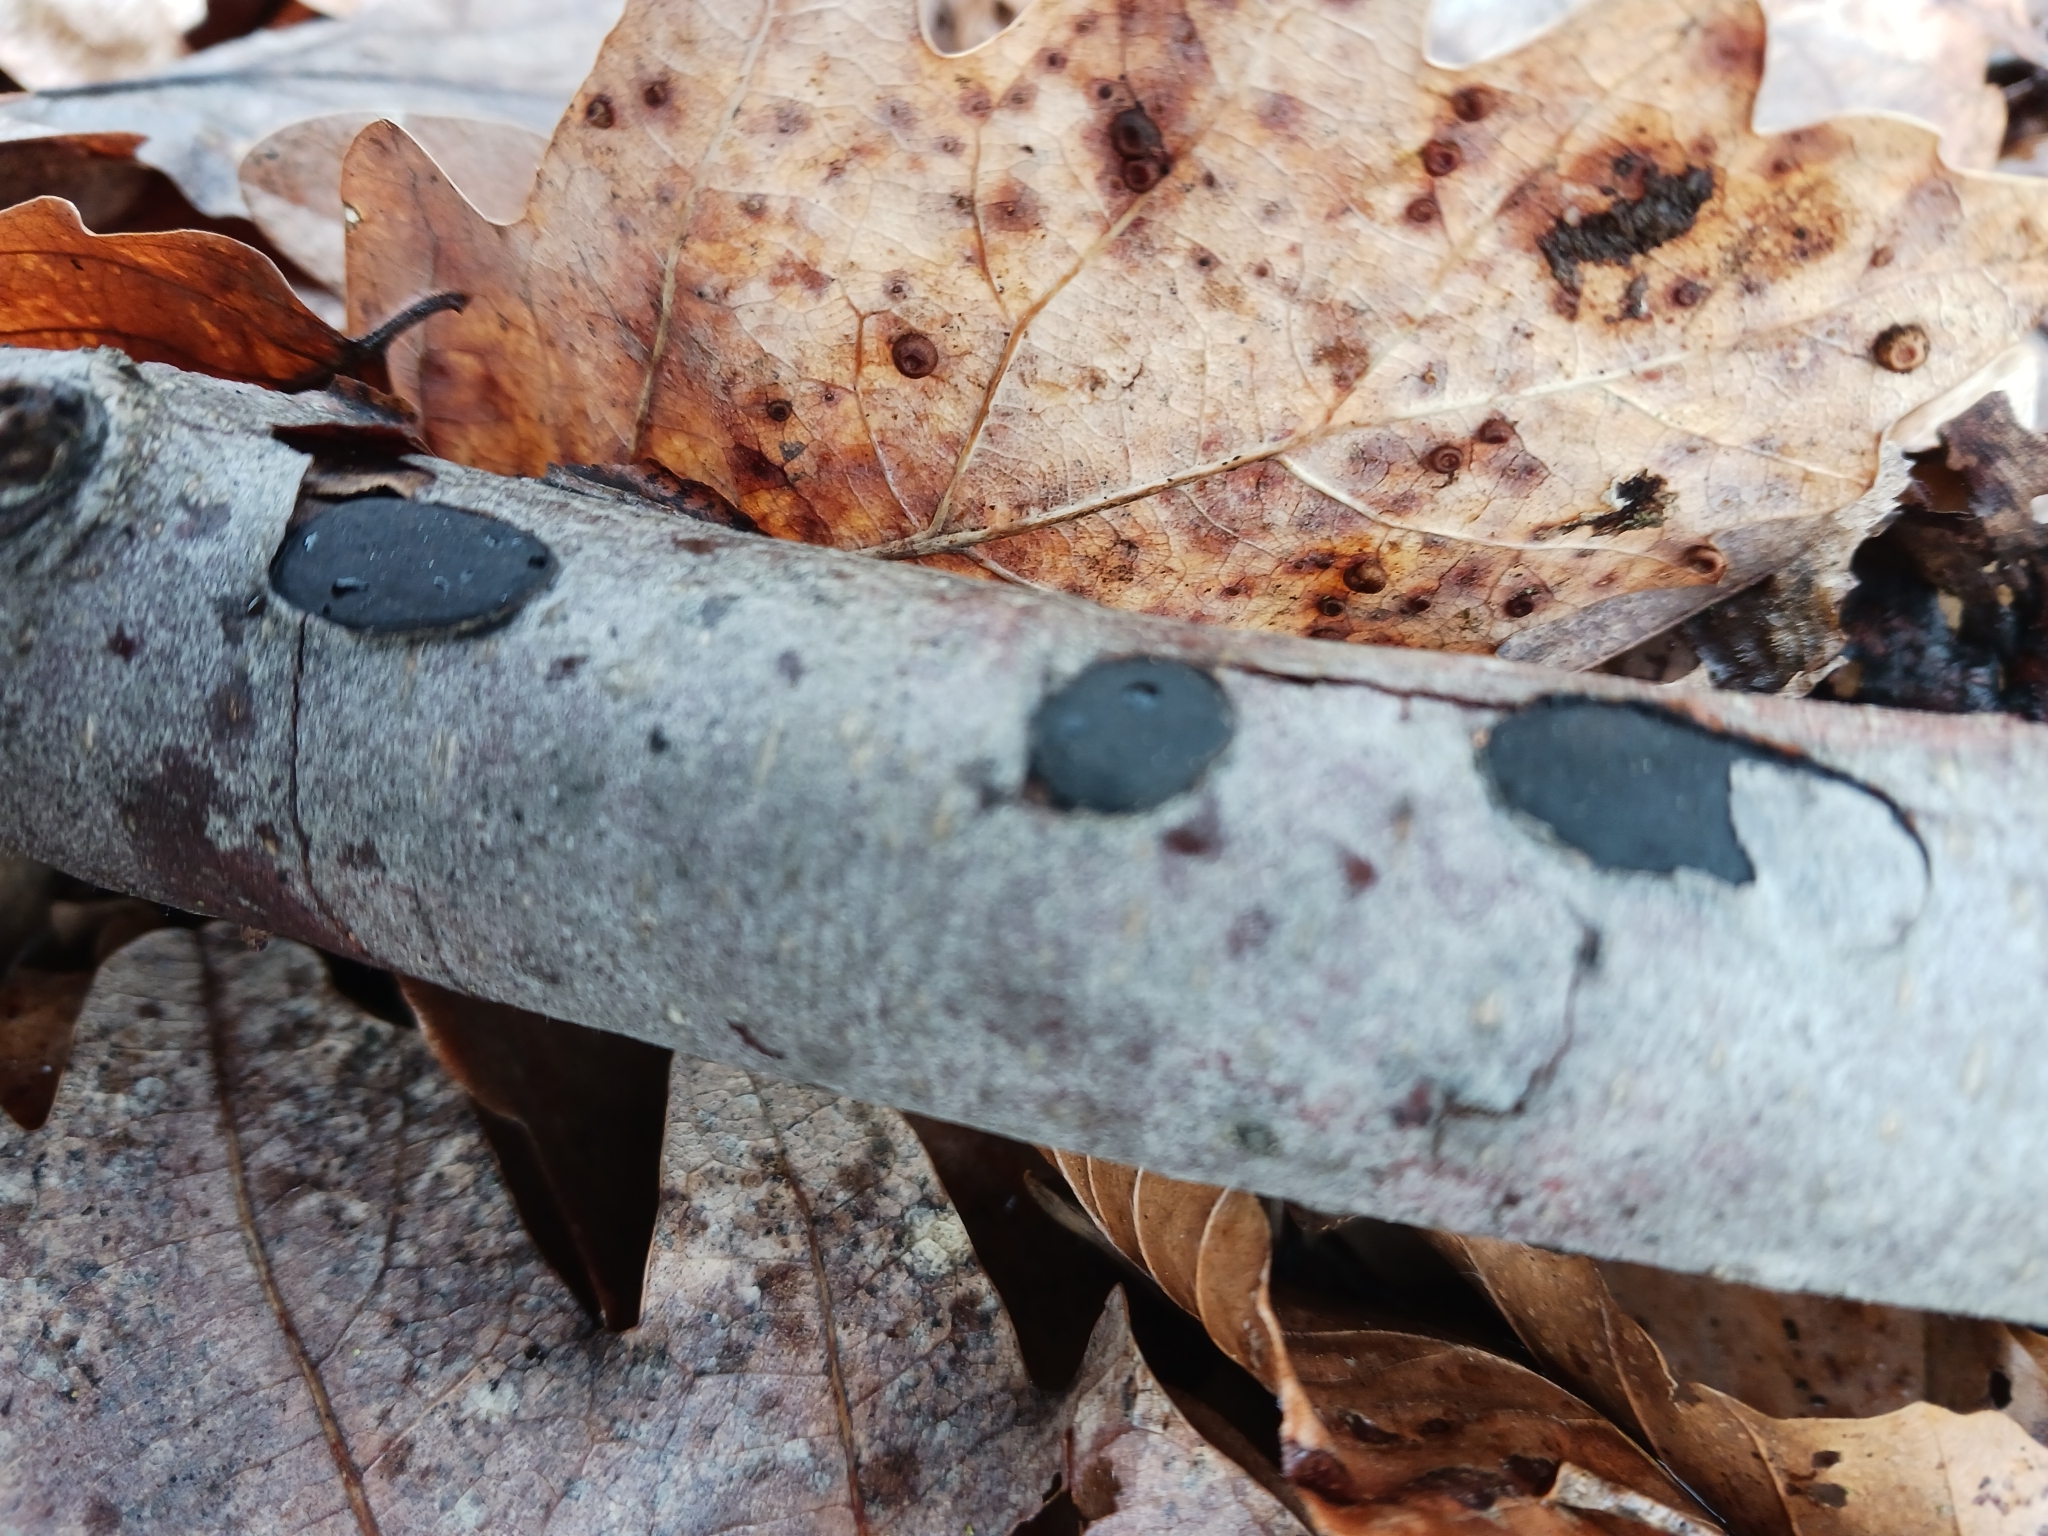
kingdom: Fungi
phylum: Ascomycota
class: Sordariomycetes
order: Xylariales
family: Graphostromataceae
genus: Biscogniauxia
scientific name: Biscogniauxia nummularia
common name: Beech tarcrust
